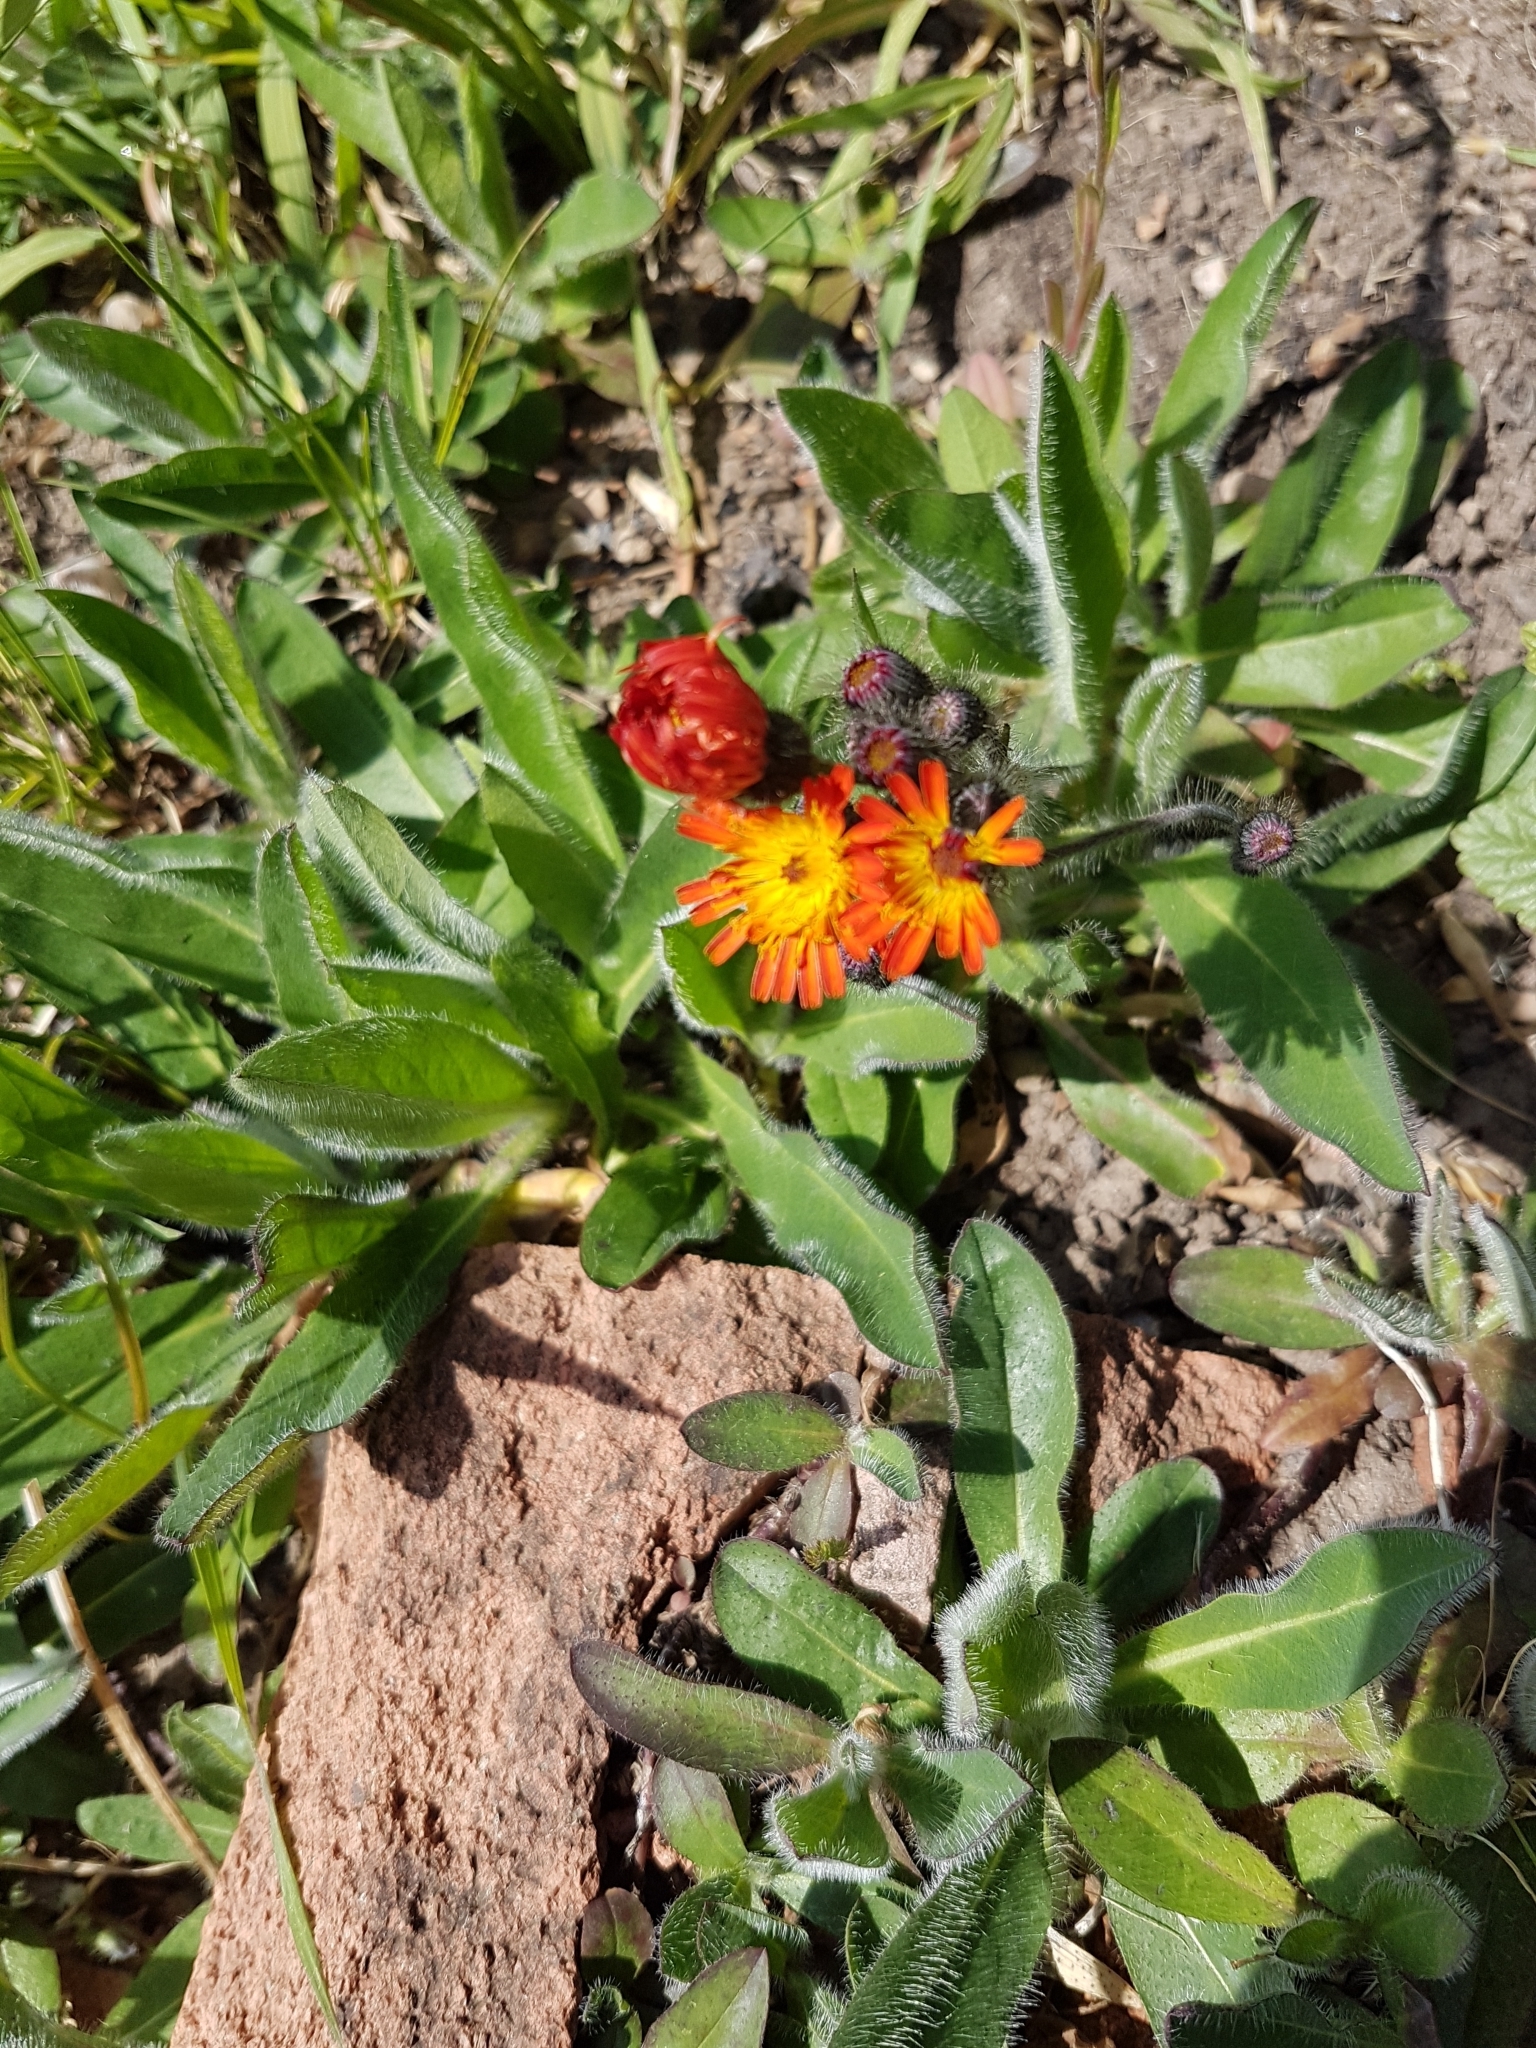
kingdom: Plantae
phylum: Tracheophyta
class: Magnoliopsida
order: Asterales
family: Asteraceae
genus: Pilosella
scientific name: Pilosella aurantiaca
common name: Fox-and-cubs
